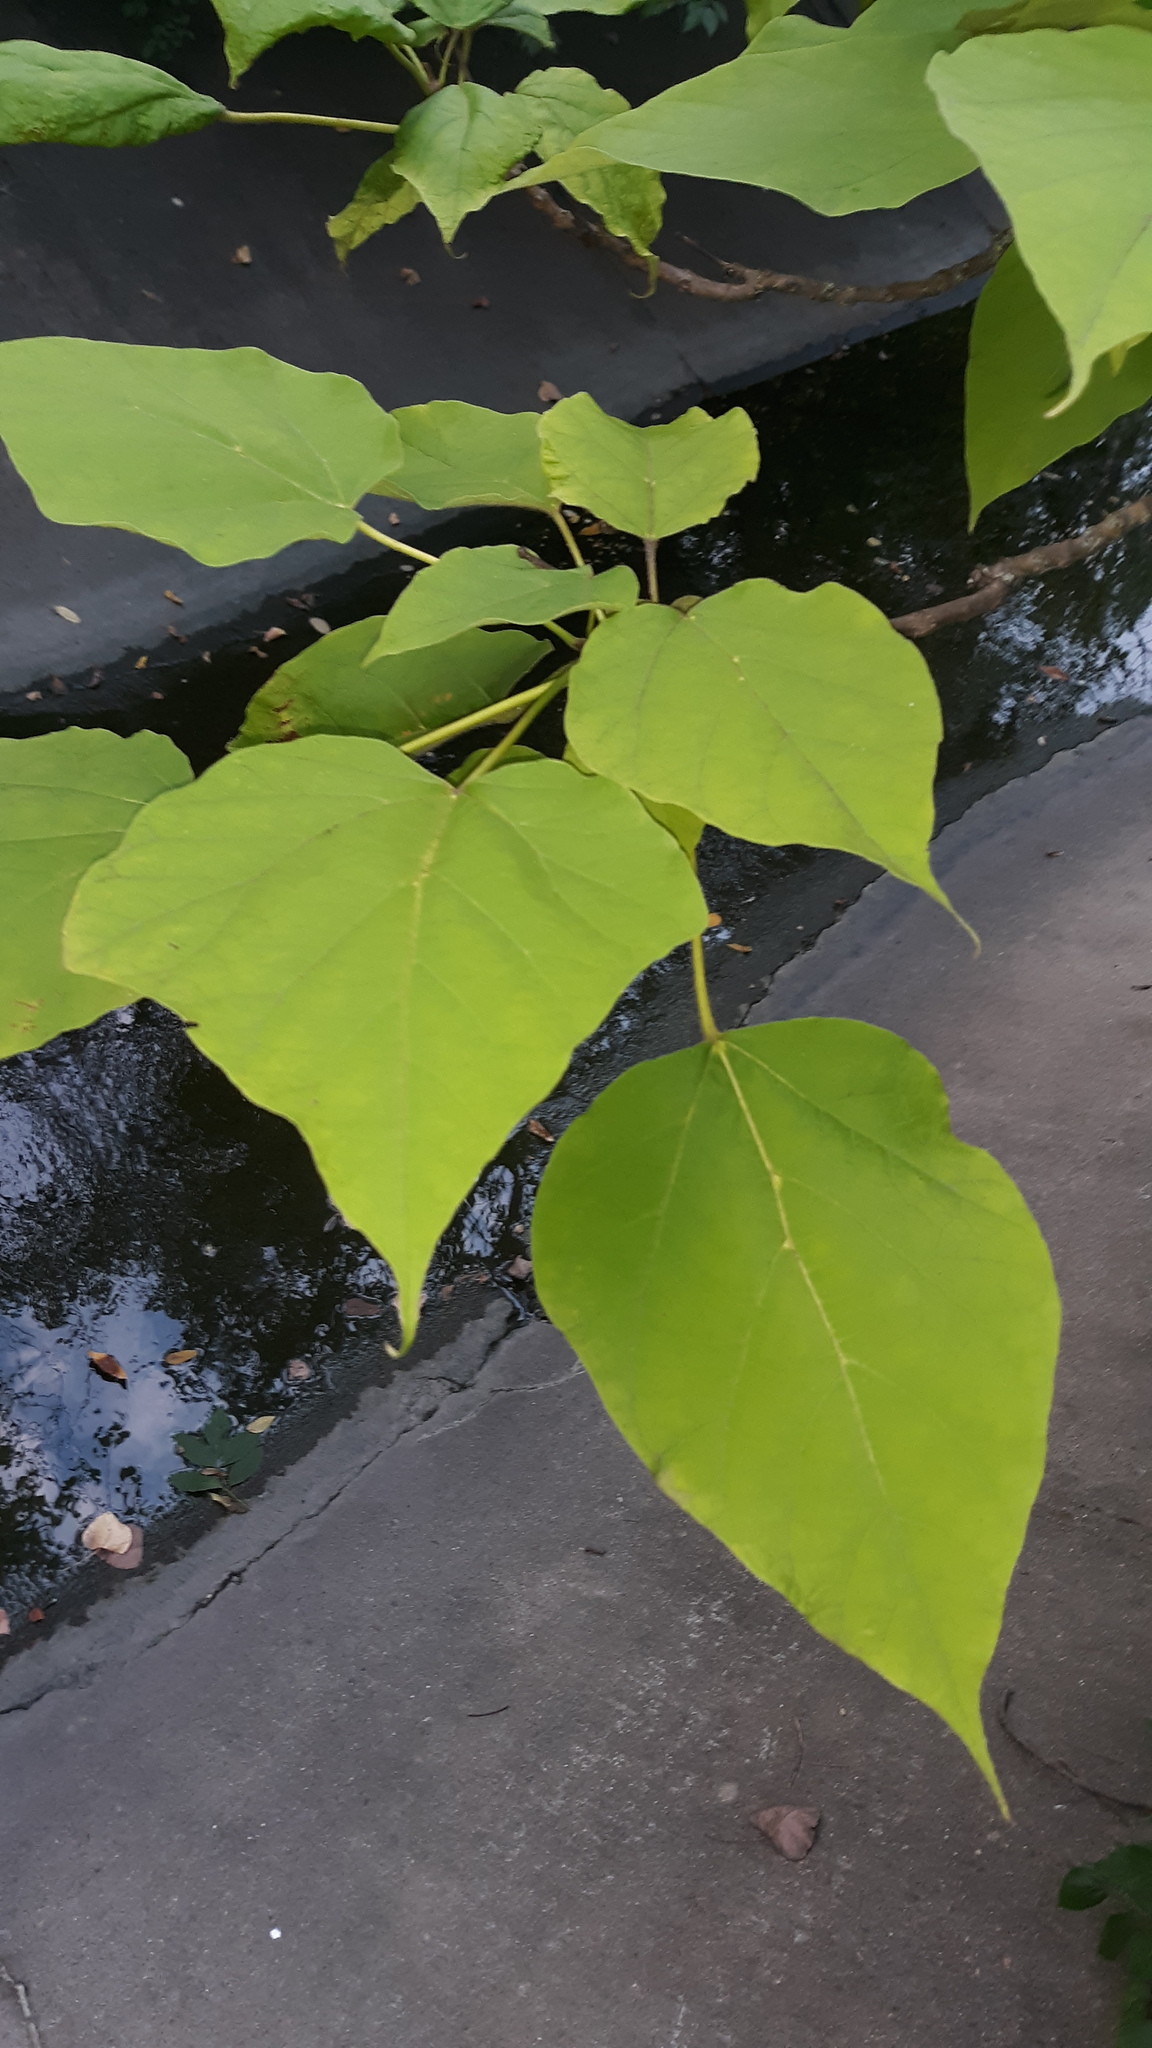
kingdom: Plantae
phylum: Tracheophyta
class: Magnoliopsida
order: Lamiales
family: Bignoniaceae
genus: Catalpa
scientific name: Catalpa speciosa
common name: Northern catalpa
